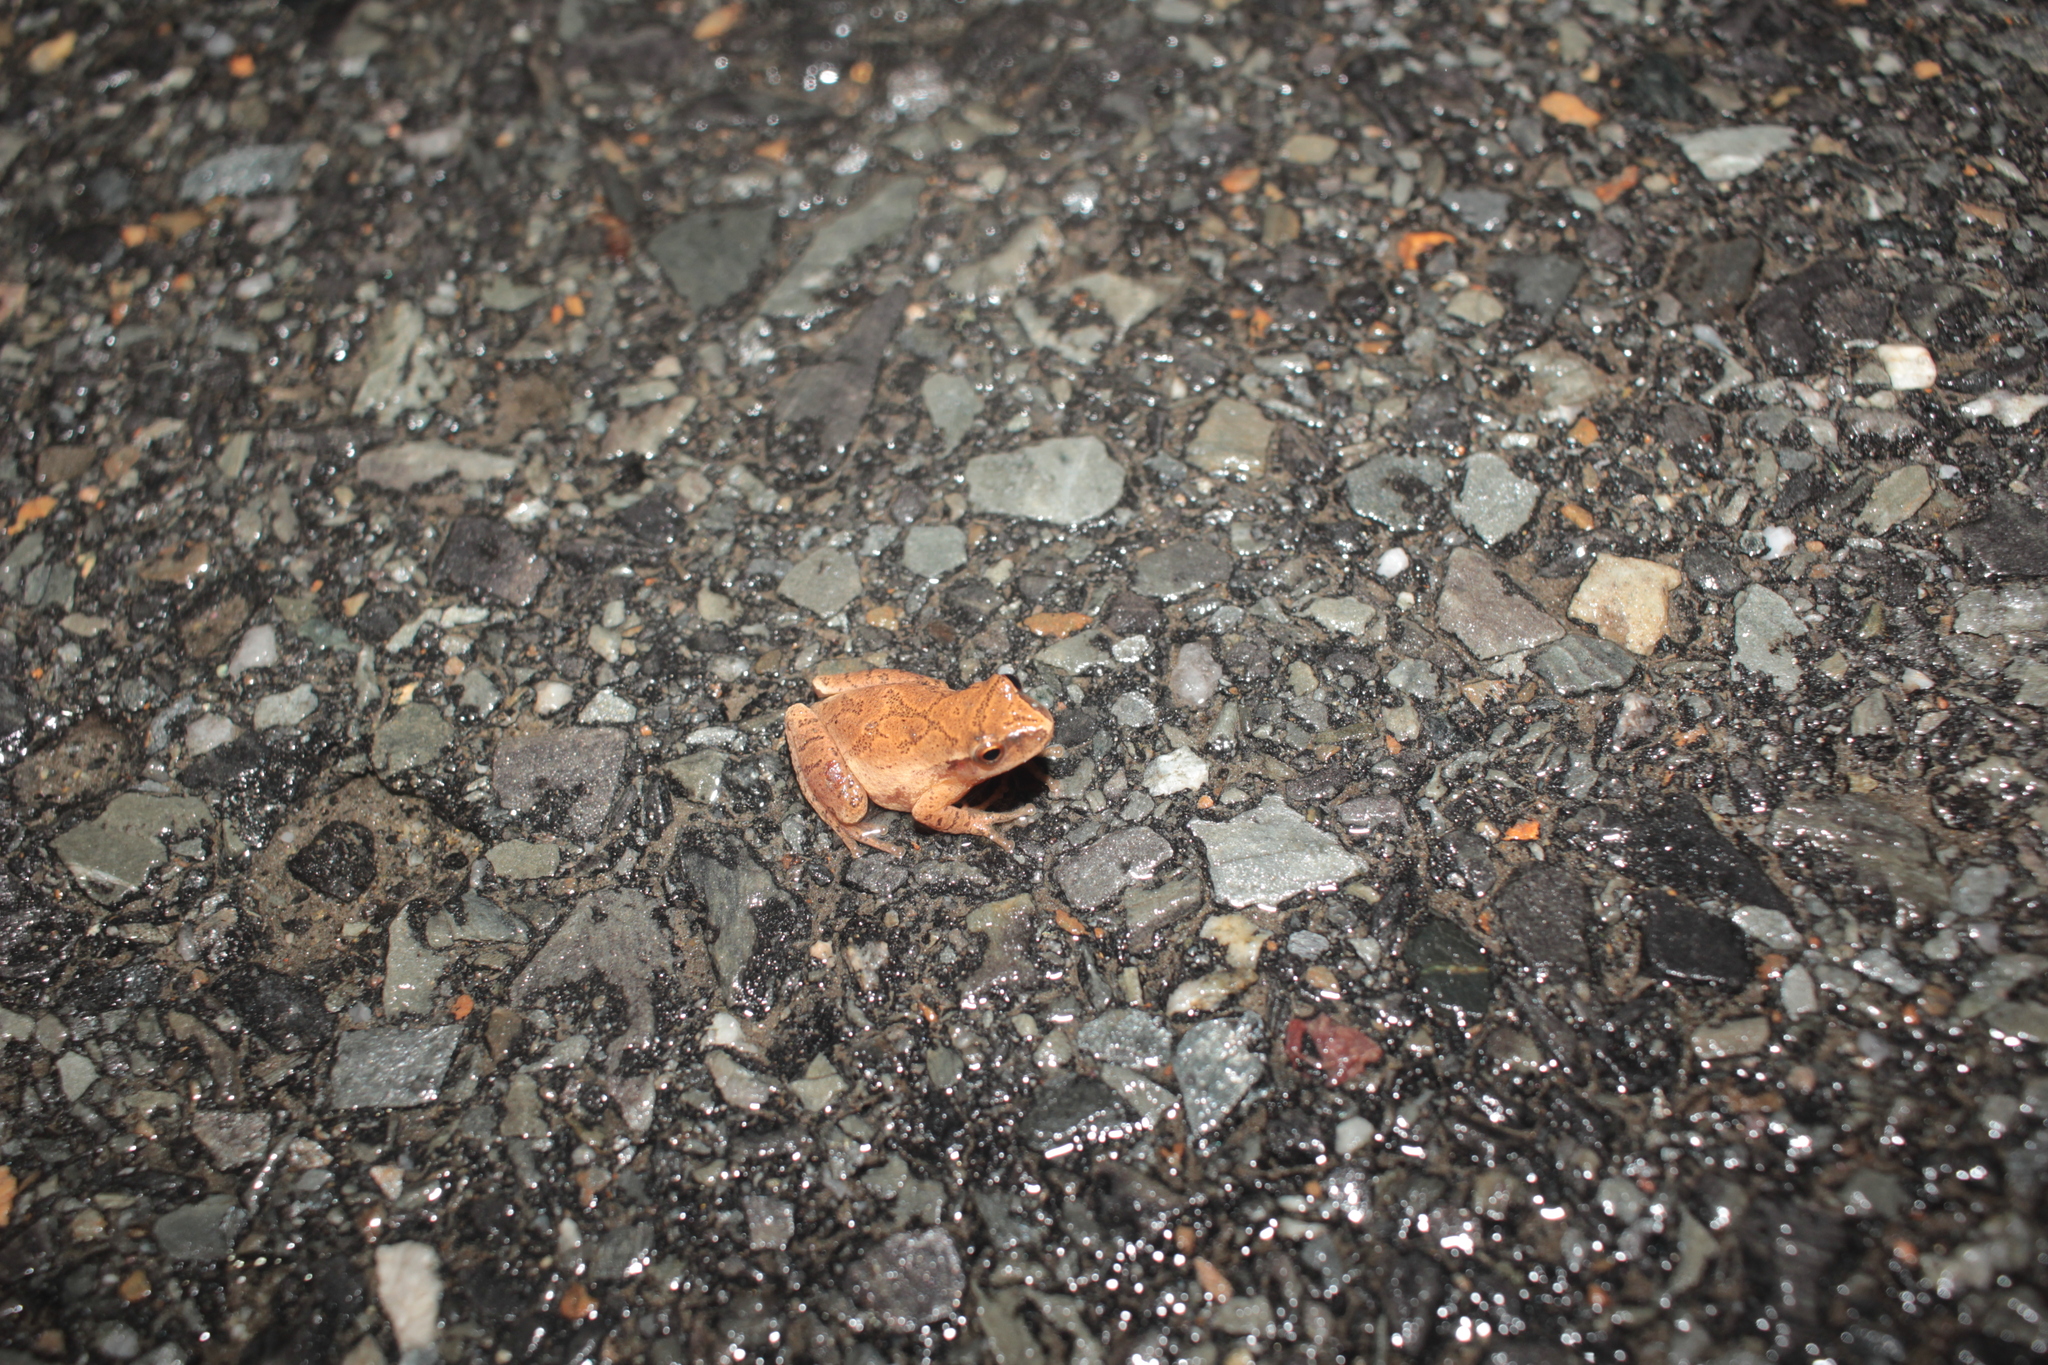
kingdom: Animalia
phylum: Chordata
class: Amphibia
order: Anura
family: Hylidae
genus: Pseudacris
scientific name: Pseudacris crucifer
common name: Spring peeper
